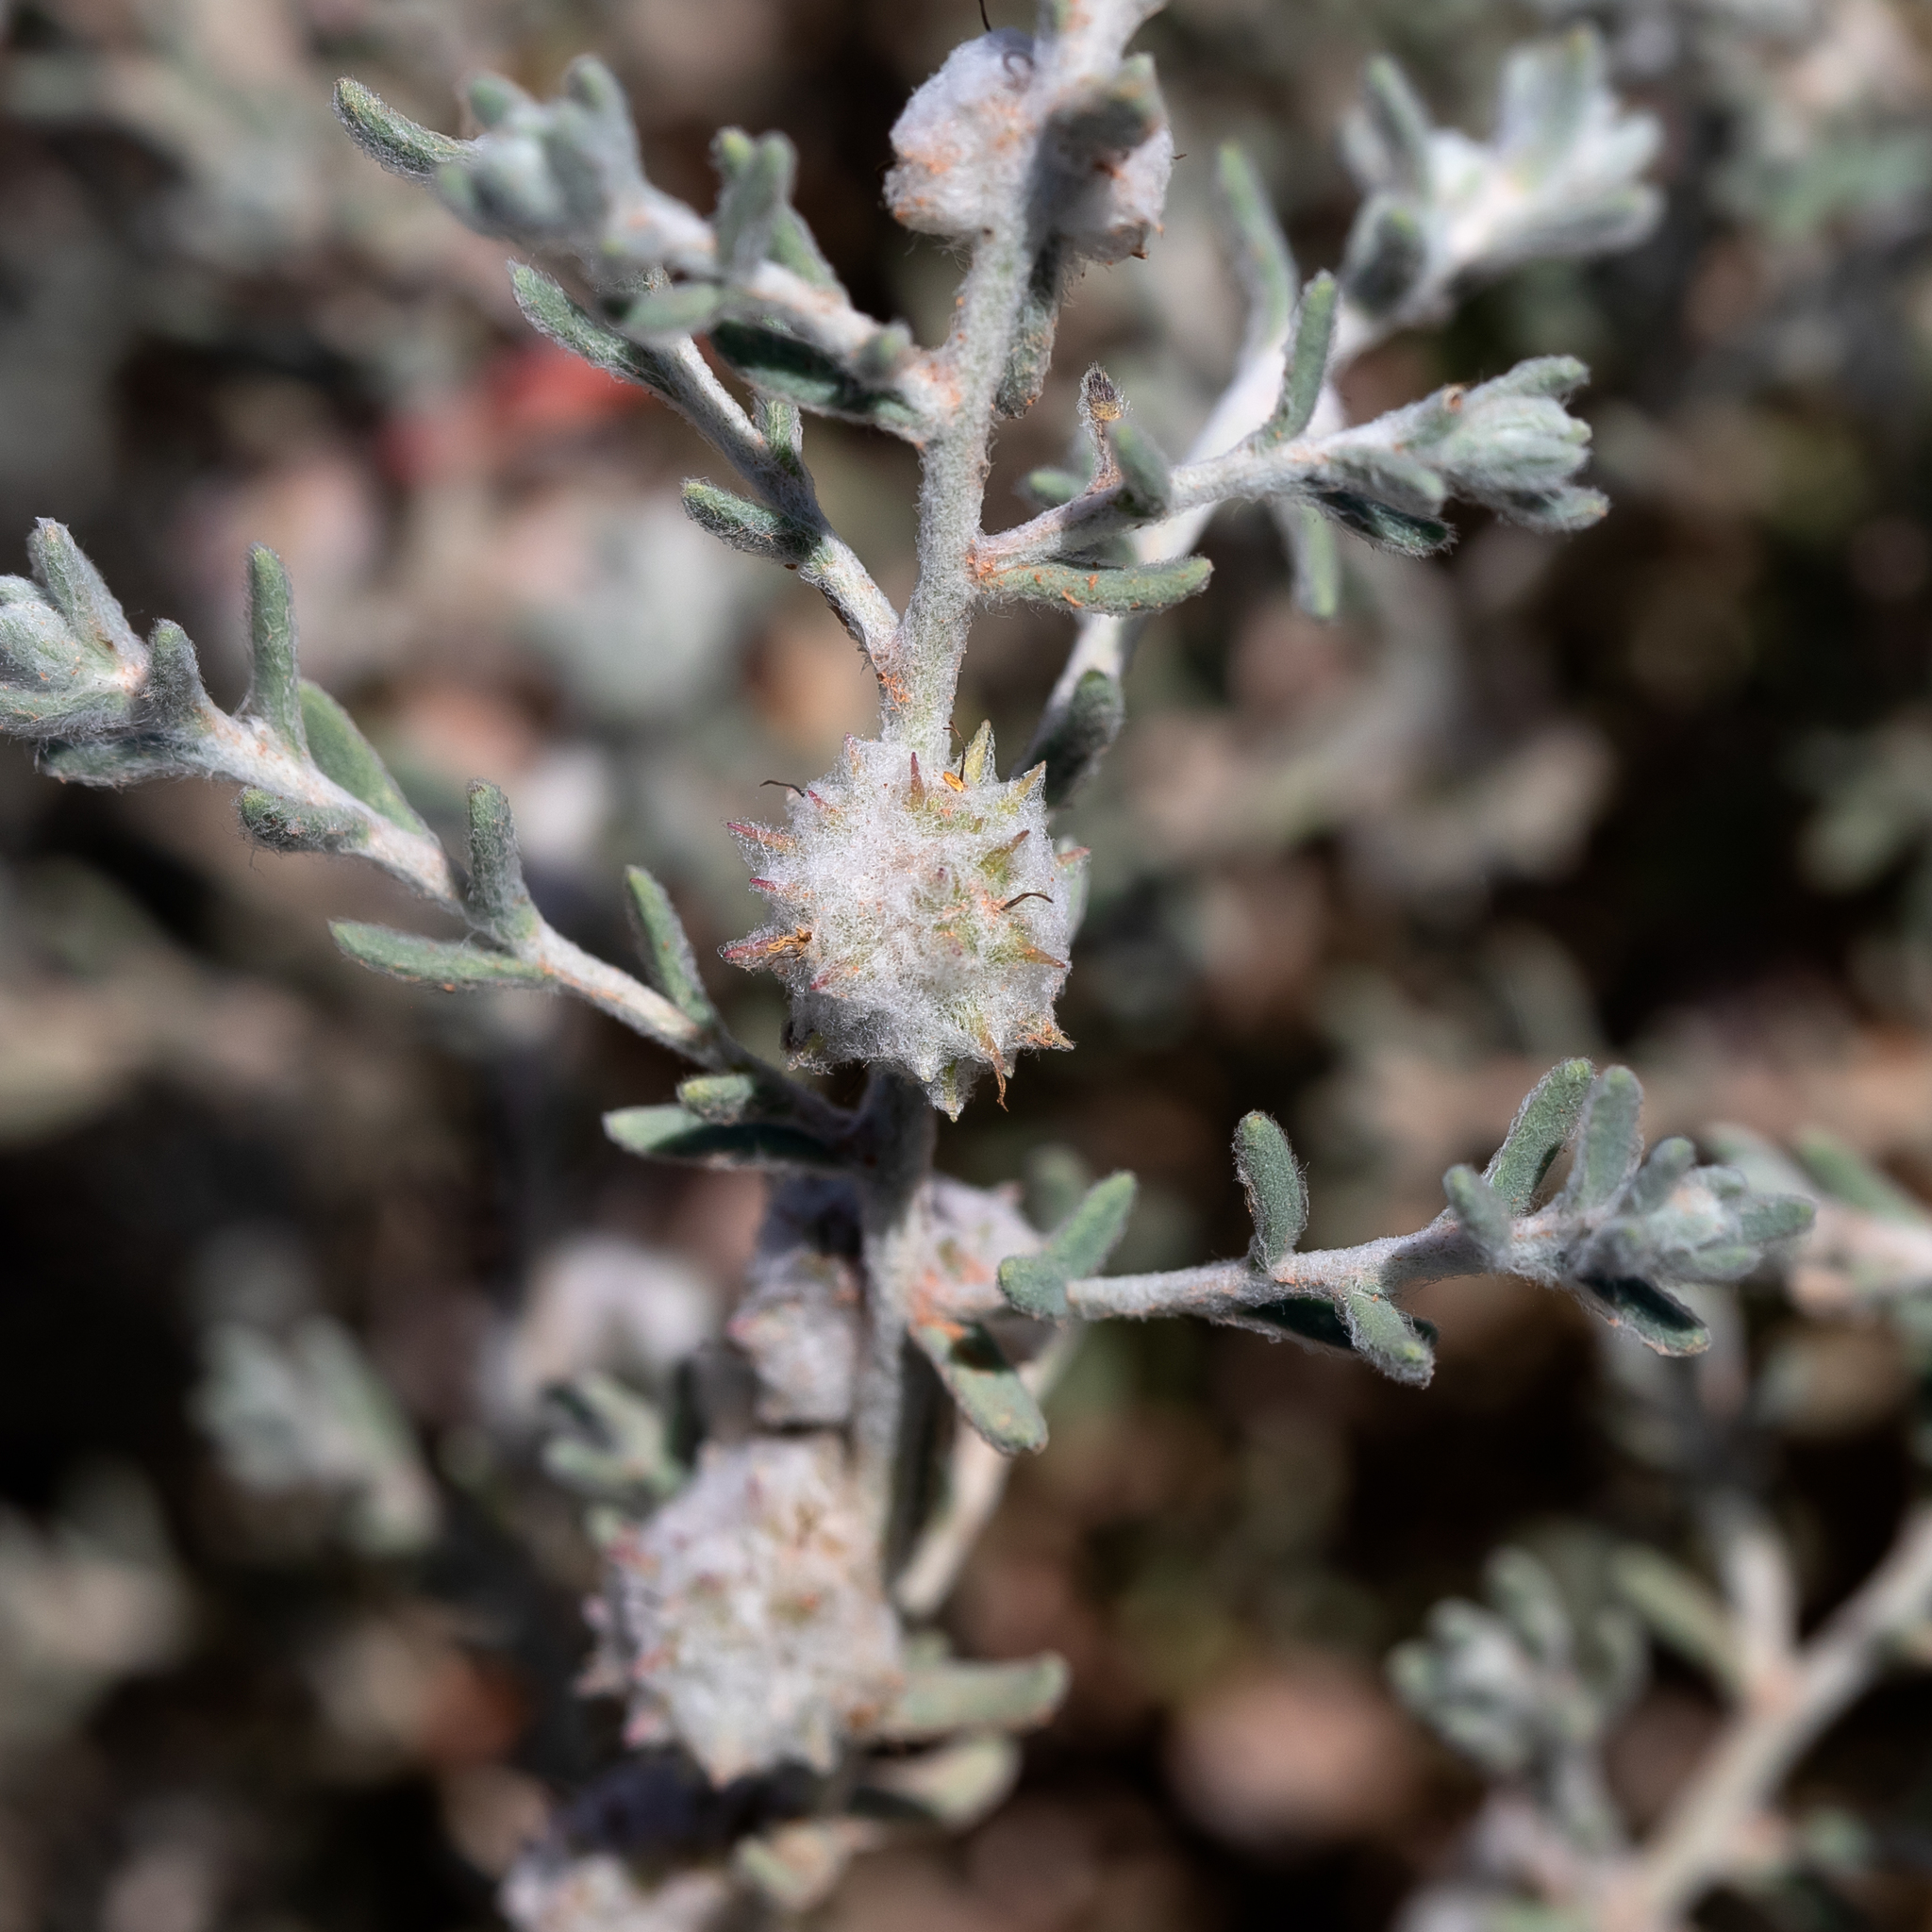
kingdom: Plantae
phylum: Tracheophyta
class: Magnoliopsida
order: Caryophyllales
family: Amaranthaceae
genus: Dissocarpus
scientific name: Dissocarpus paradoxus
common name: Bur-saltbush
